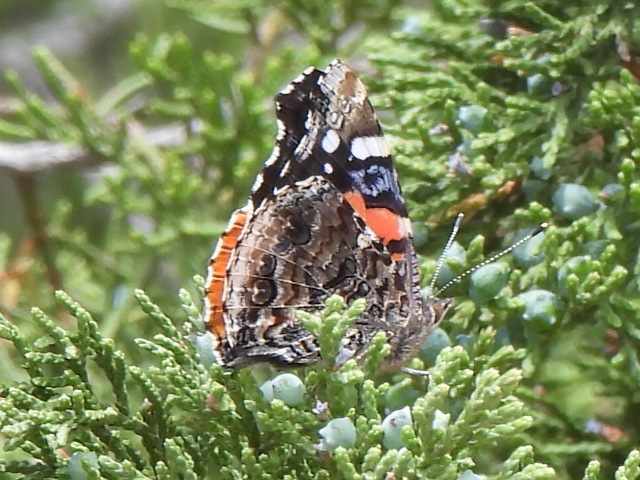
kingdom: Animalia
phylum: Arthropoda
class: Insecta
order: Lepidoptera
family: Nymphalidae
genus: Vanessa
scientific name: Vanessa atalanta
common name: Red admiral
